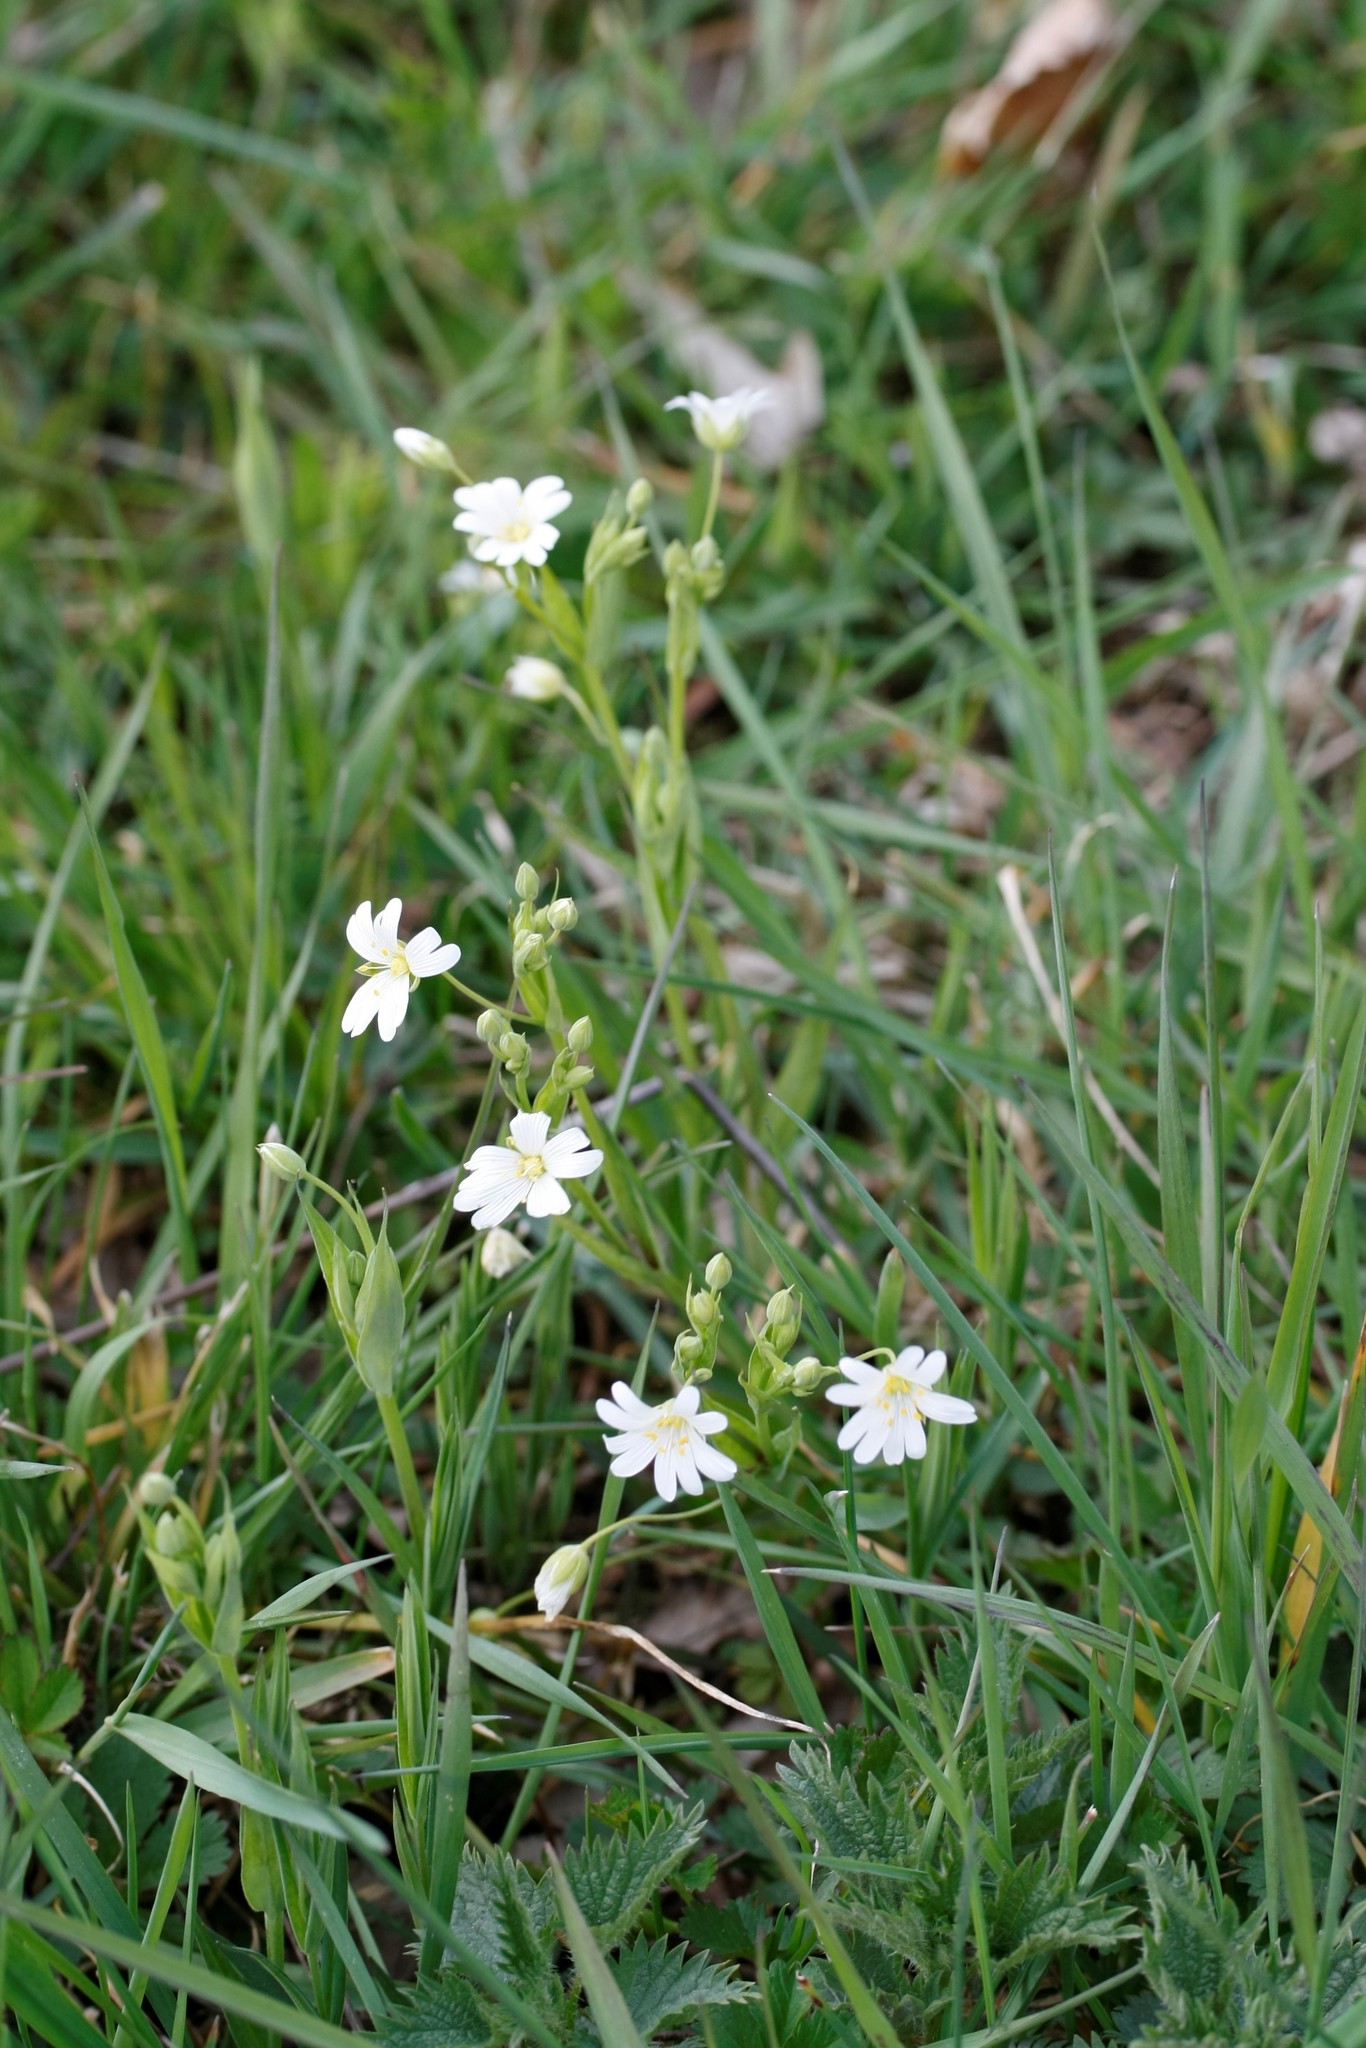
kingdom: Plantae
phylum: Tracheophyta
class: Magnoliopsida
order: Caryophyllales
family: Caryophyllaceae
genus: Rabelera
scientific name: Rabelera holostea
